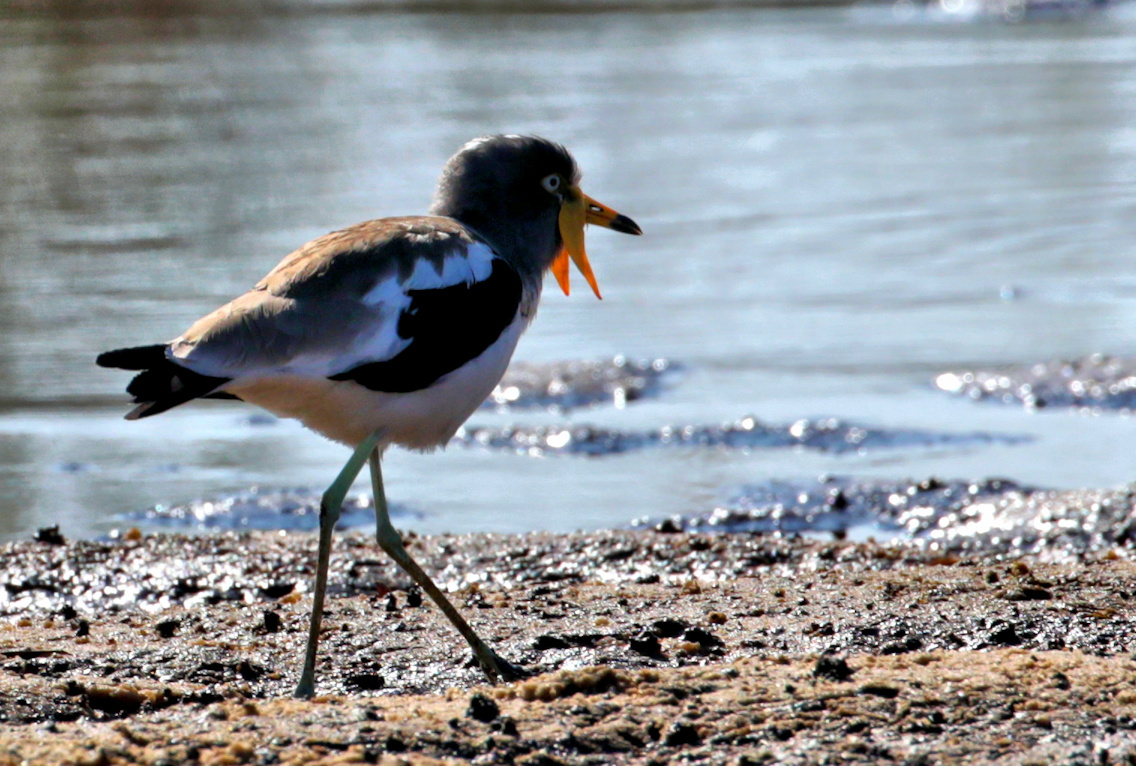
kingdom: Animalia
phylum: Chordata
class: Aves
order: Charadriiformes
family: Charadriidae
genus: Vanellus
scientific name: Vanellus albiceps
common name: White-crowned lapwing
